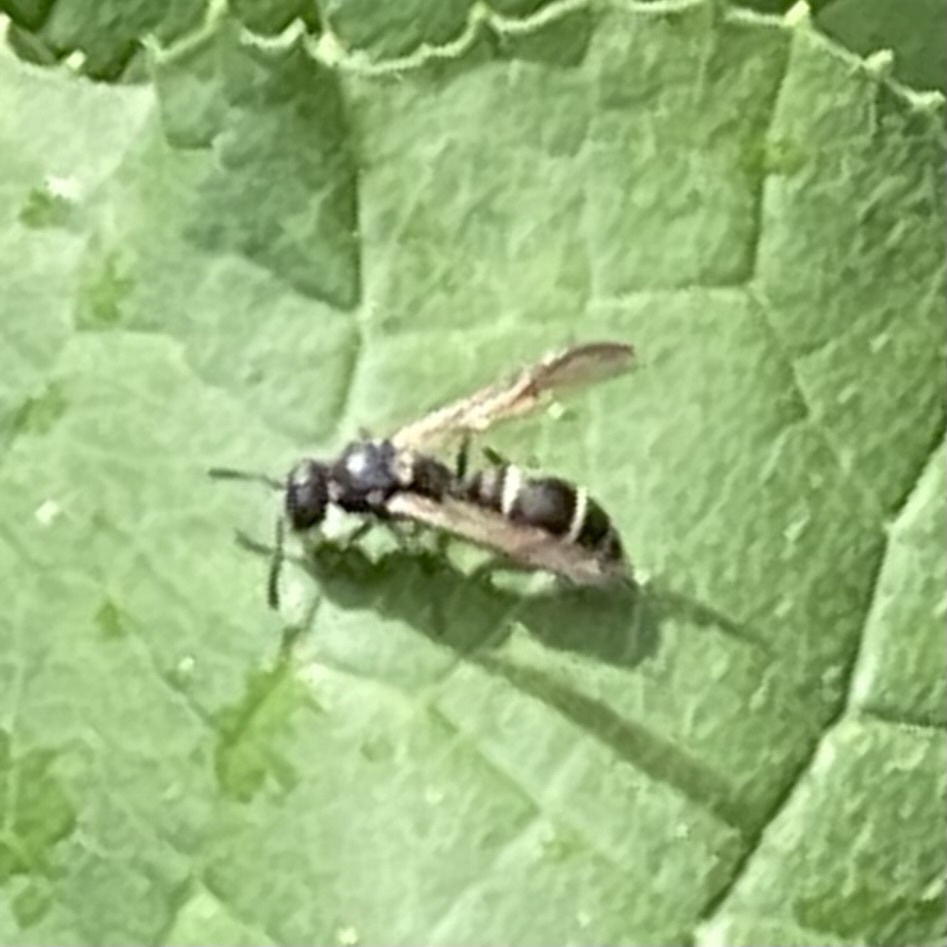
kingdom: Animalia
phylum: Arthropoda
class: Insecta
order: Hymenoptera
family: Vespidae
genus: Ancistrocerus
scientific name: Ancistrocerus
